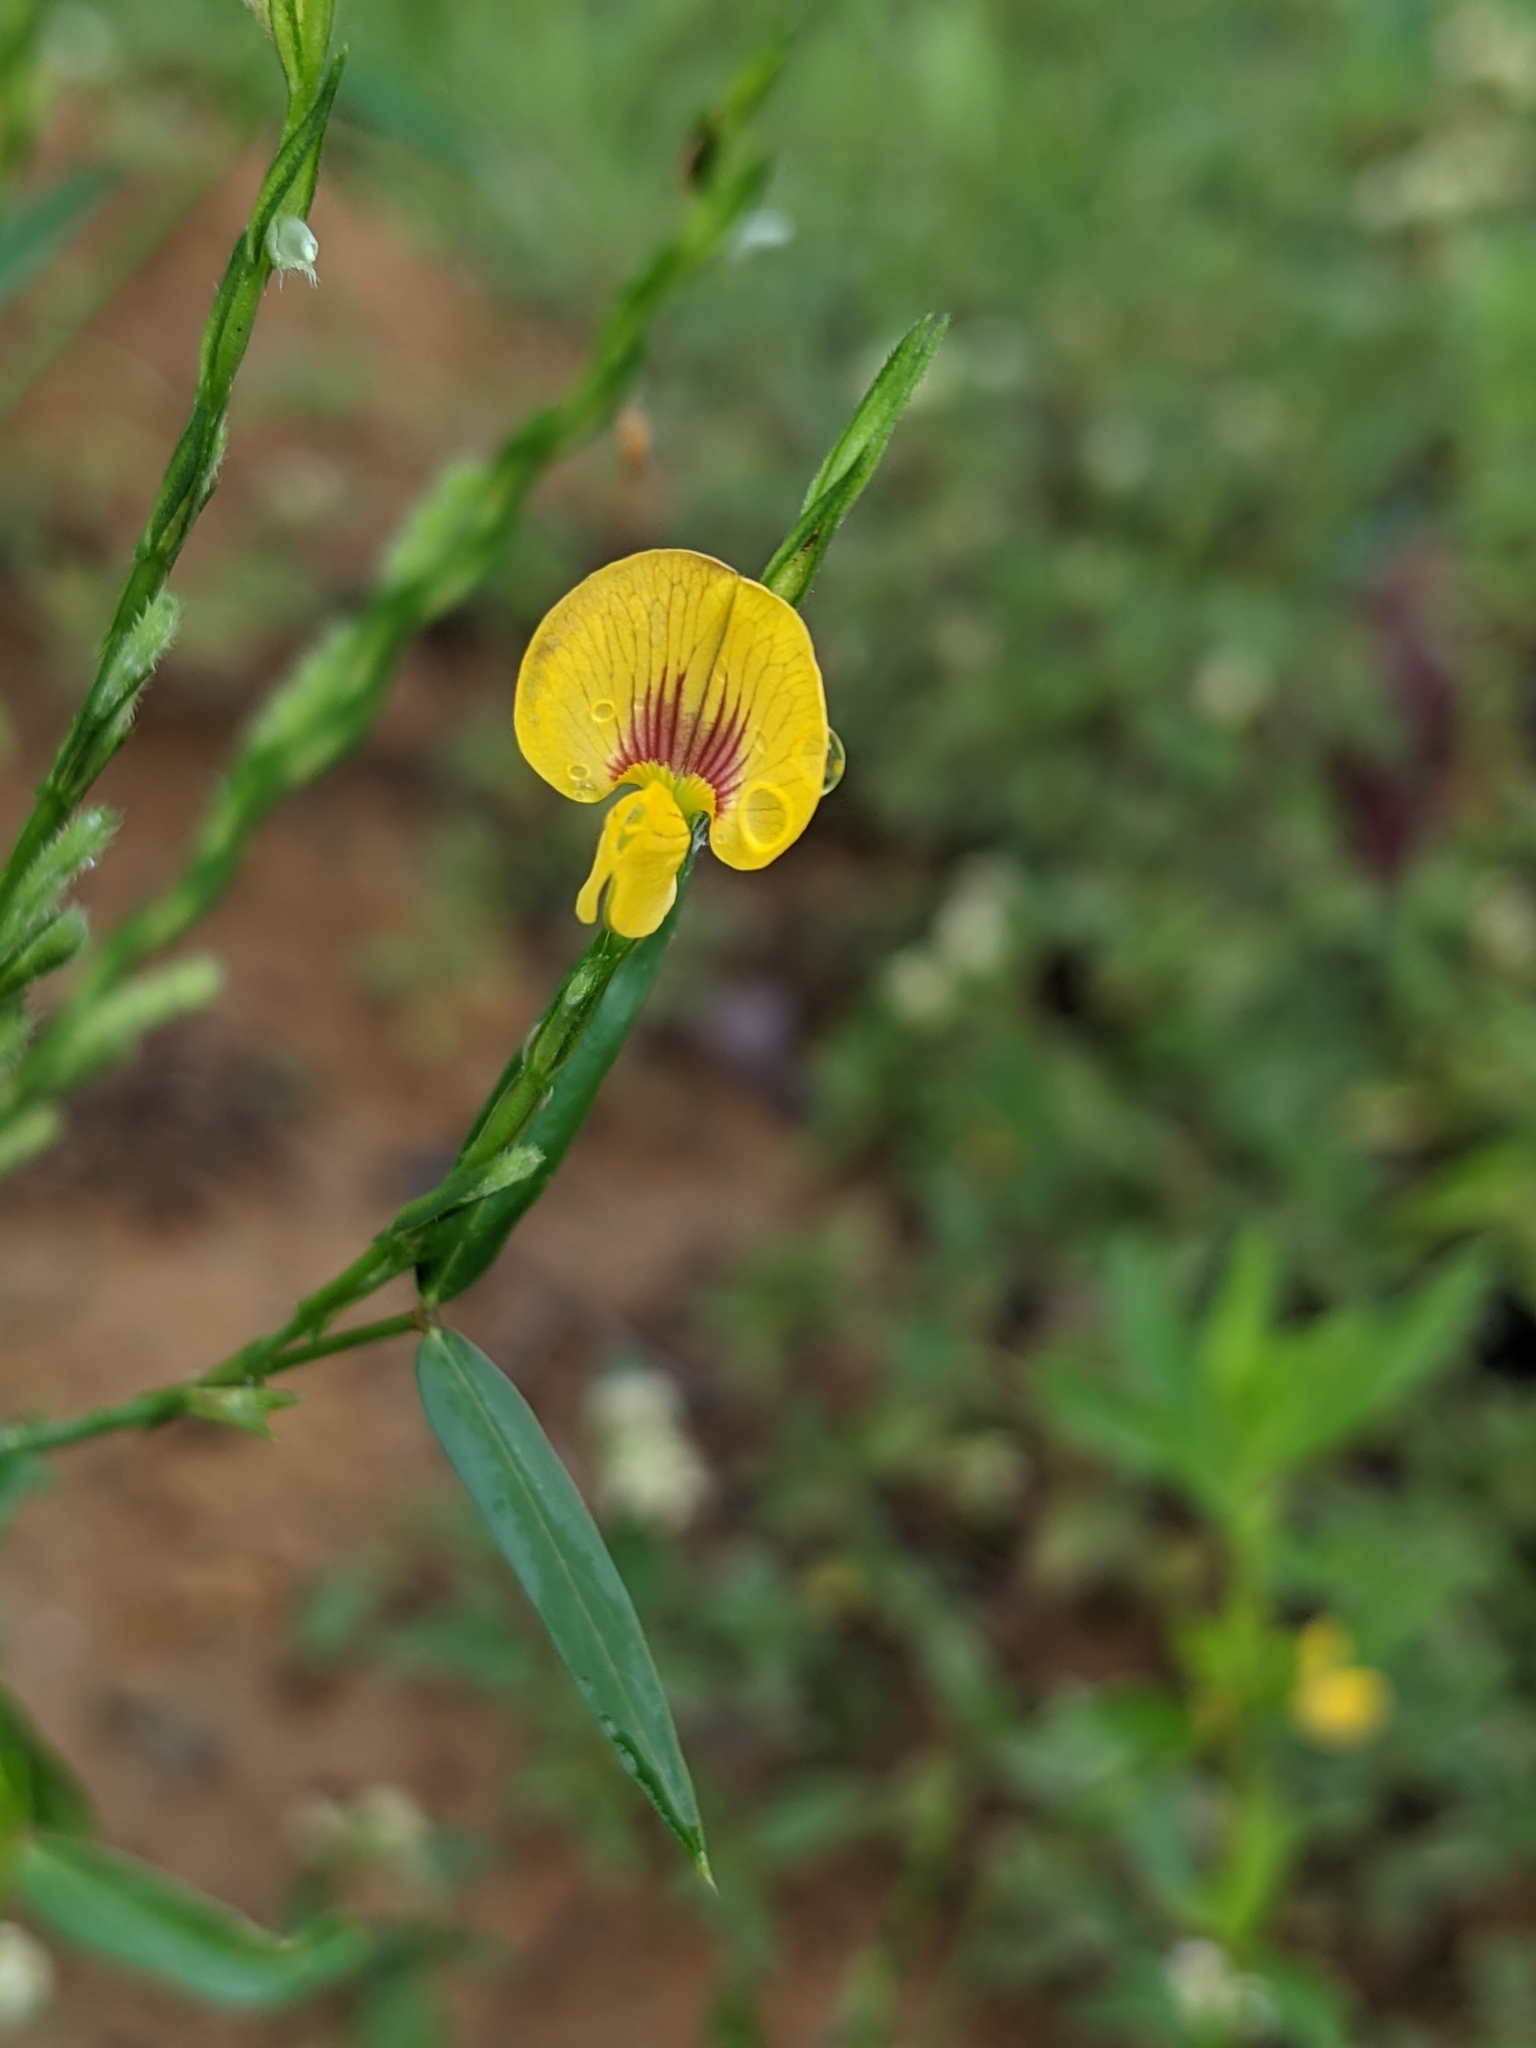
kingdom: Plantae
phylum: Tracheophyta
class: Magnoliopsida
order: Fabales
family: Fabaceae
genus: Zornia
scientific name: Zornia latifolia
